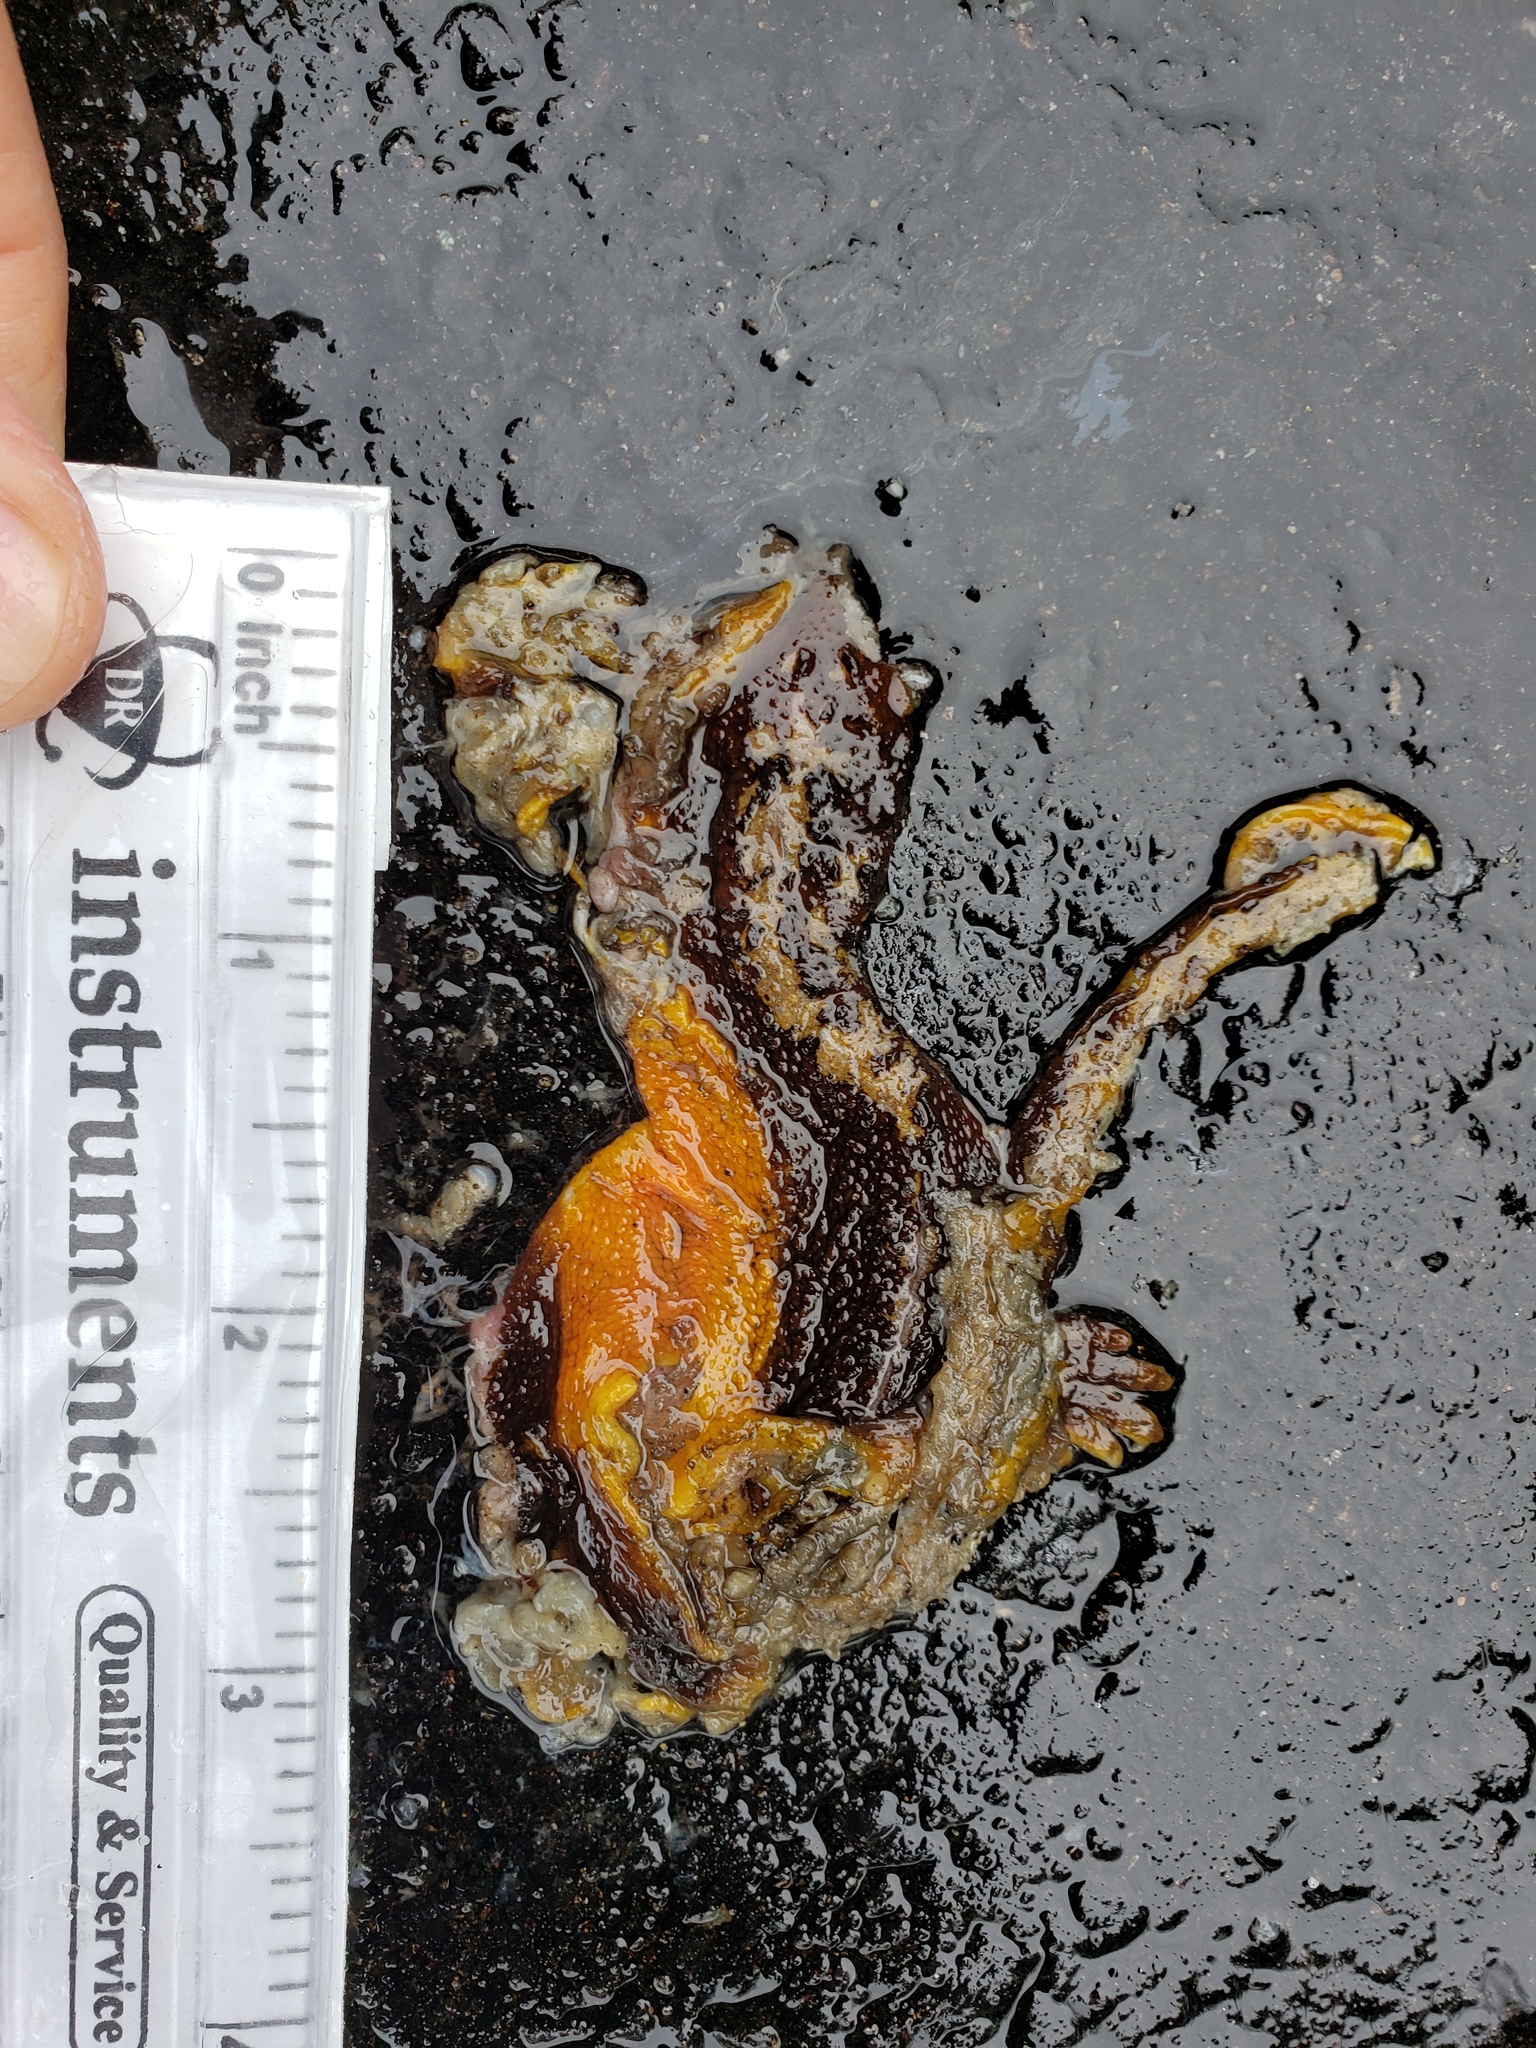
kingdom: Animalia
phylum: Chordata
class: Amphibia
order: Caudata
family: Salamandridae
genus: Taricha
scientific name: Taricha
